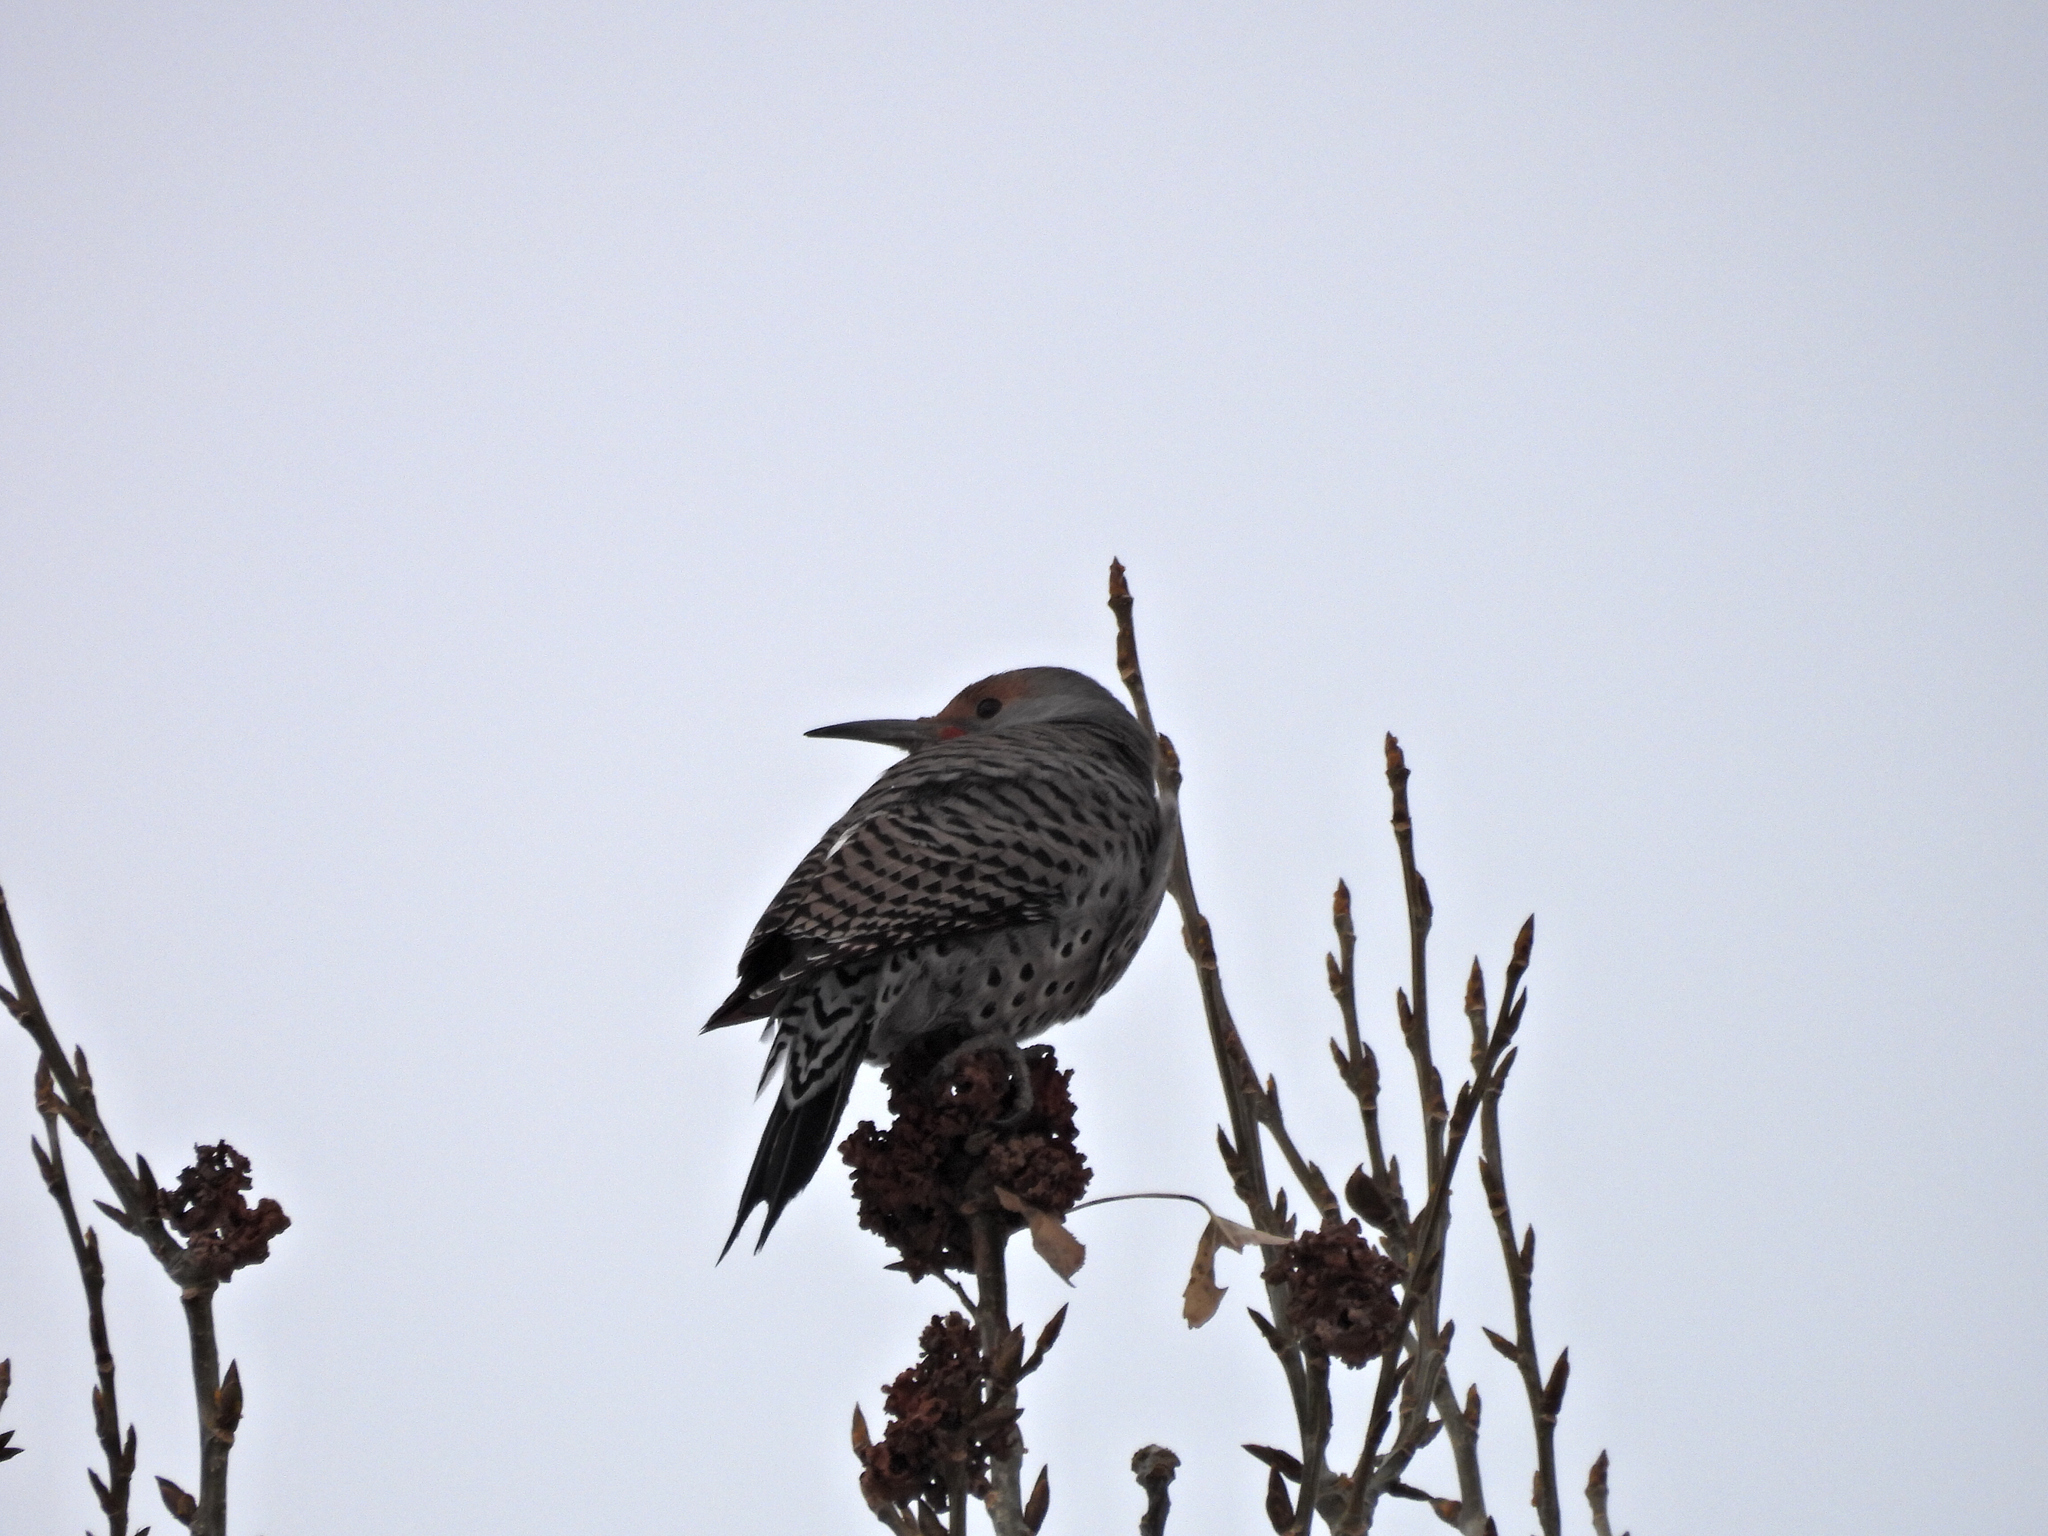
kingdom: Animalia
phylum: Chordata
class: Aves
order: Piciformes
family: Picidae
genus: Colaptes
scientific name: Colaptes auratus
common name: Northern flicker
